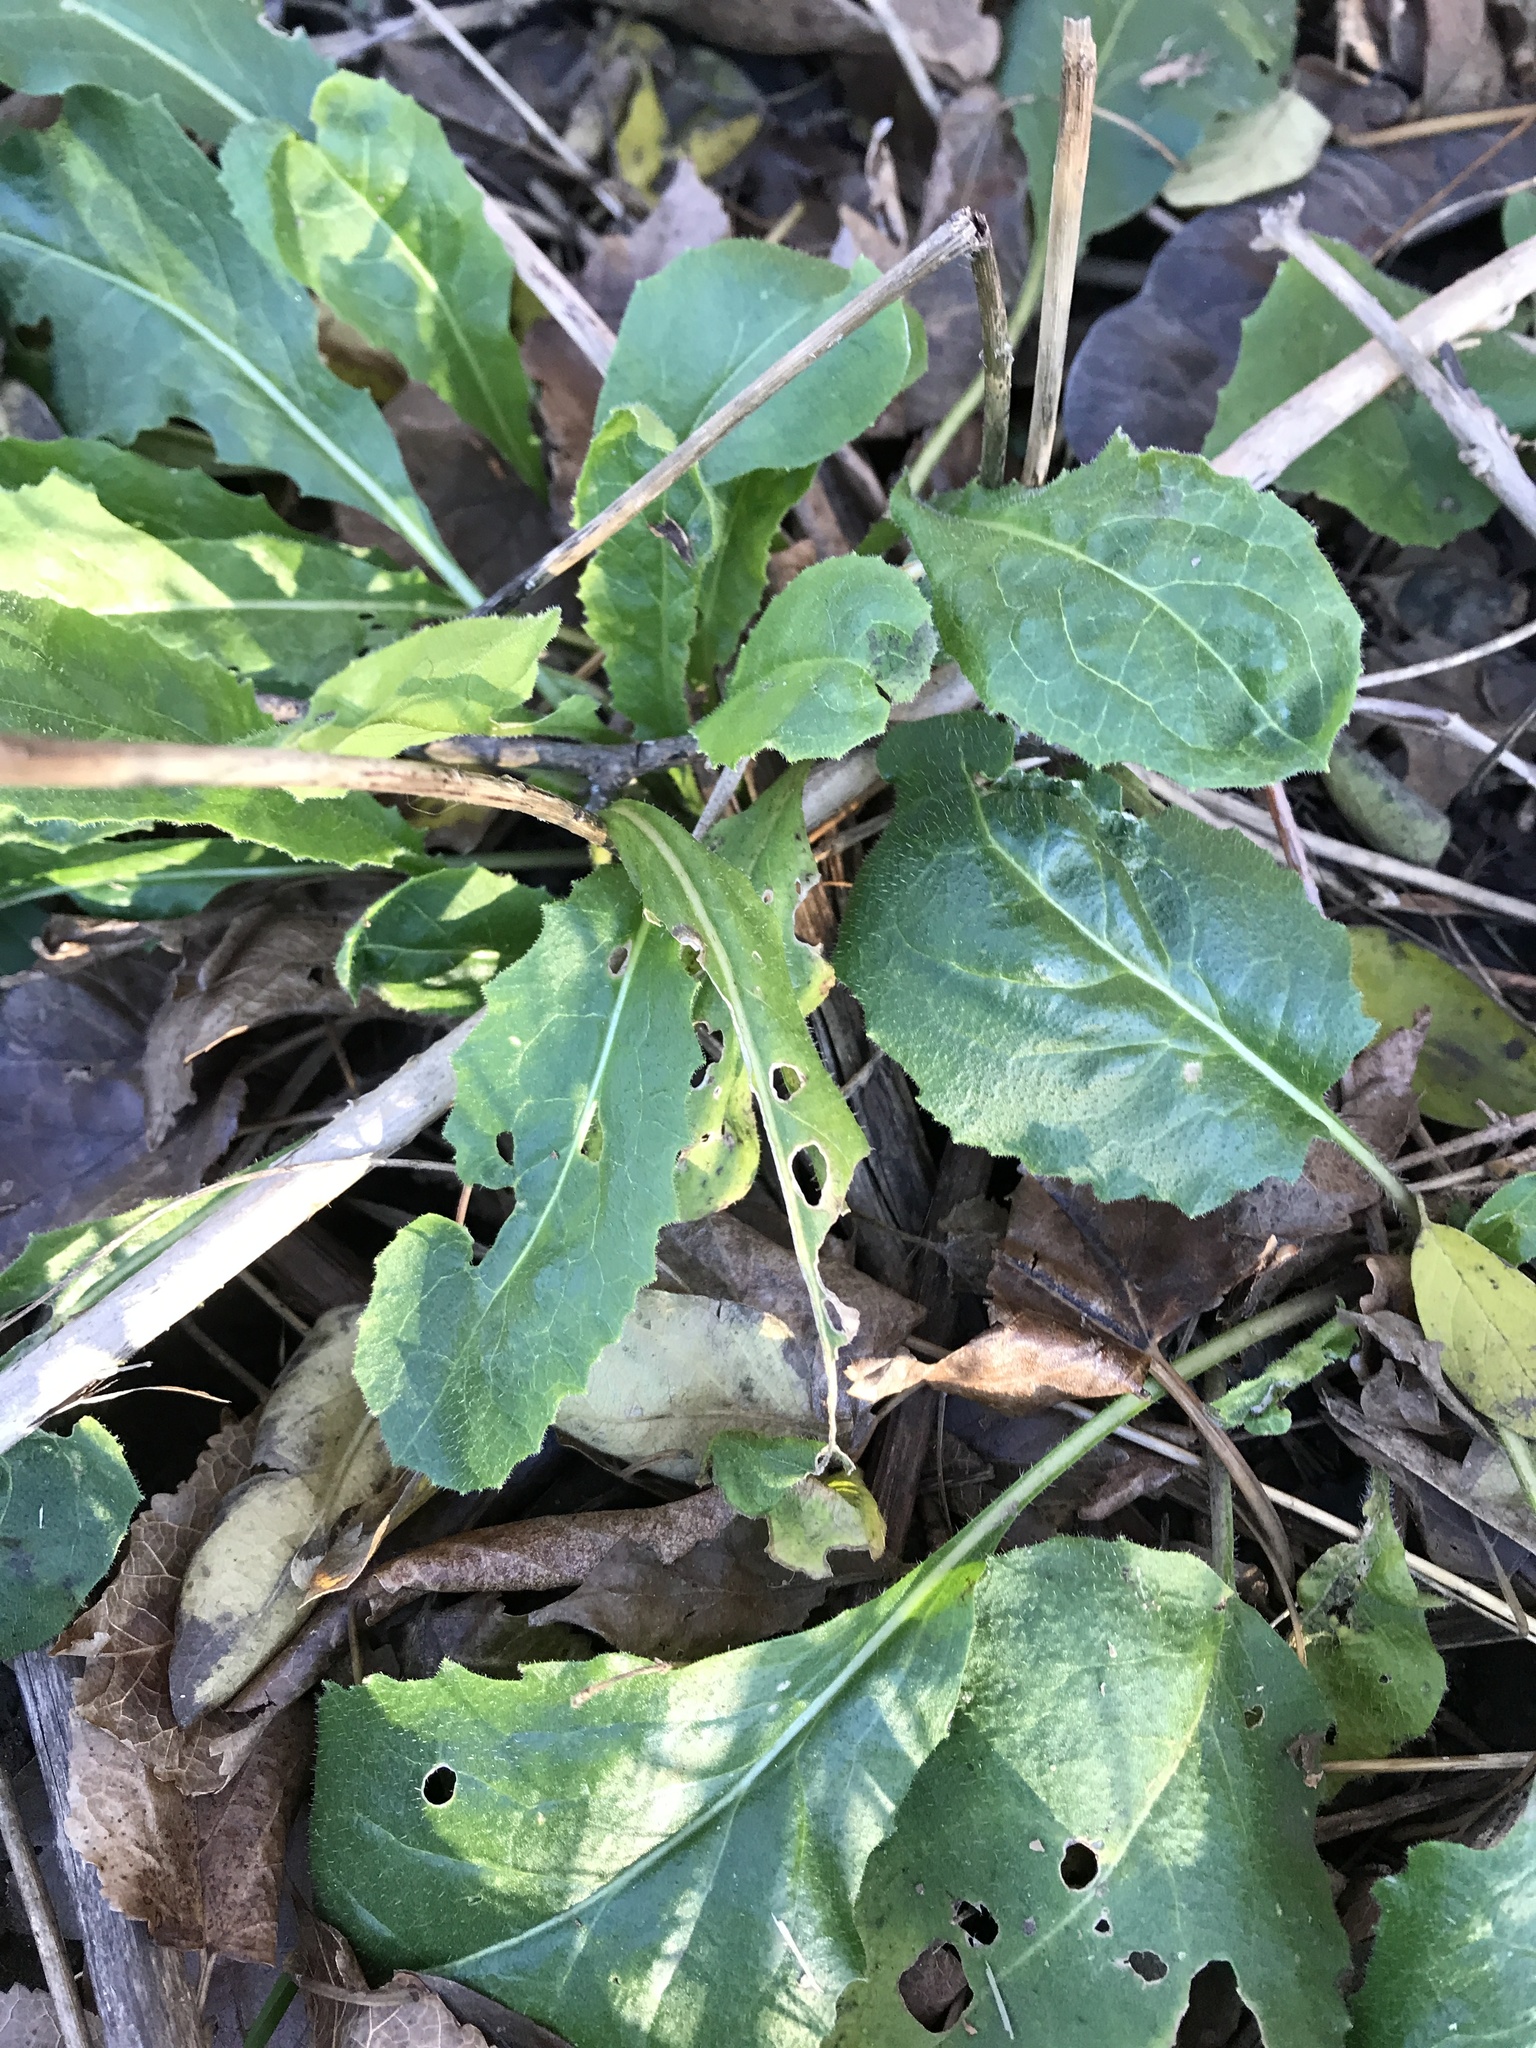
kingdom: Plantae
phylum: Tracheophyta
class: Magnoliopsida
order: Brassicales
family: Brassicaceae
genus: Hesperis
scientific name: Hesperis matronalis
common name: Dame's-violet
